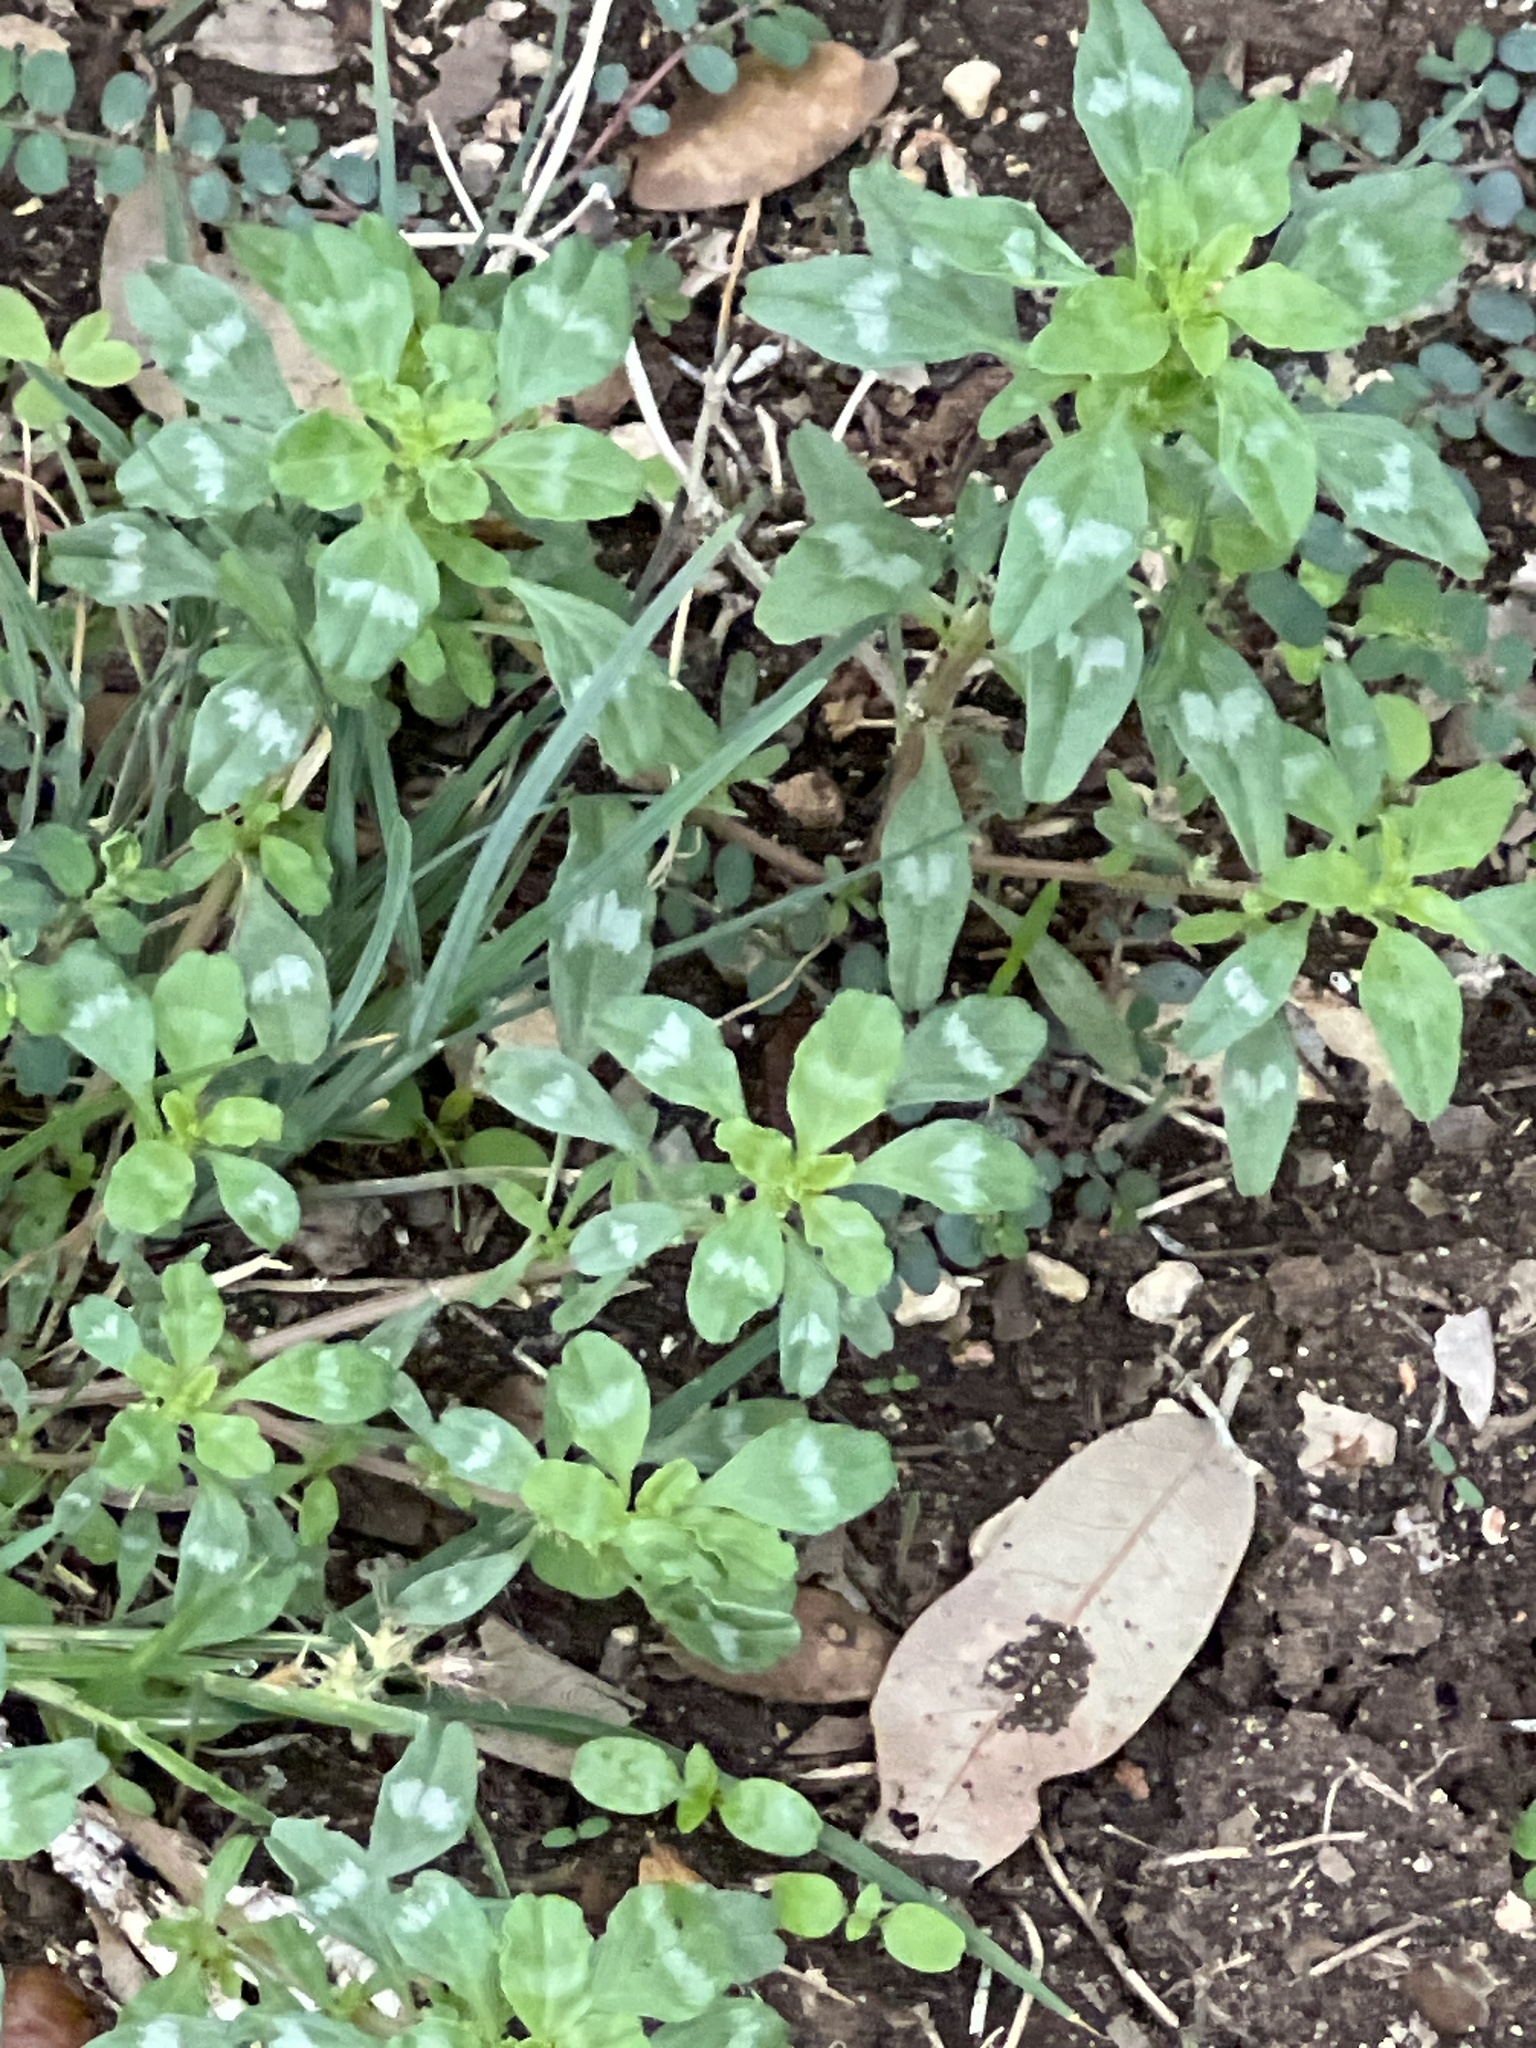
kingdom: Plantae
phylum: Tracheophyta
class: Magnoliopsida
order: Caryophyllales
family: Amaranthaceae
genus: Amaranthus
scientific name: Amaranthus polygonoides
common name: Tropical amaranth
